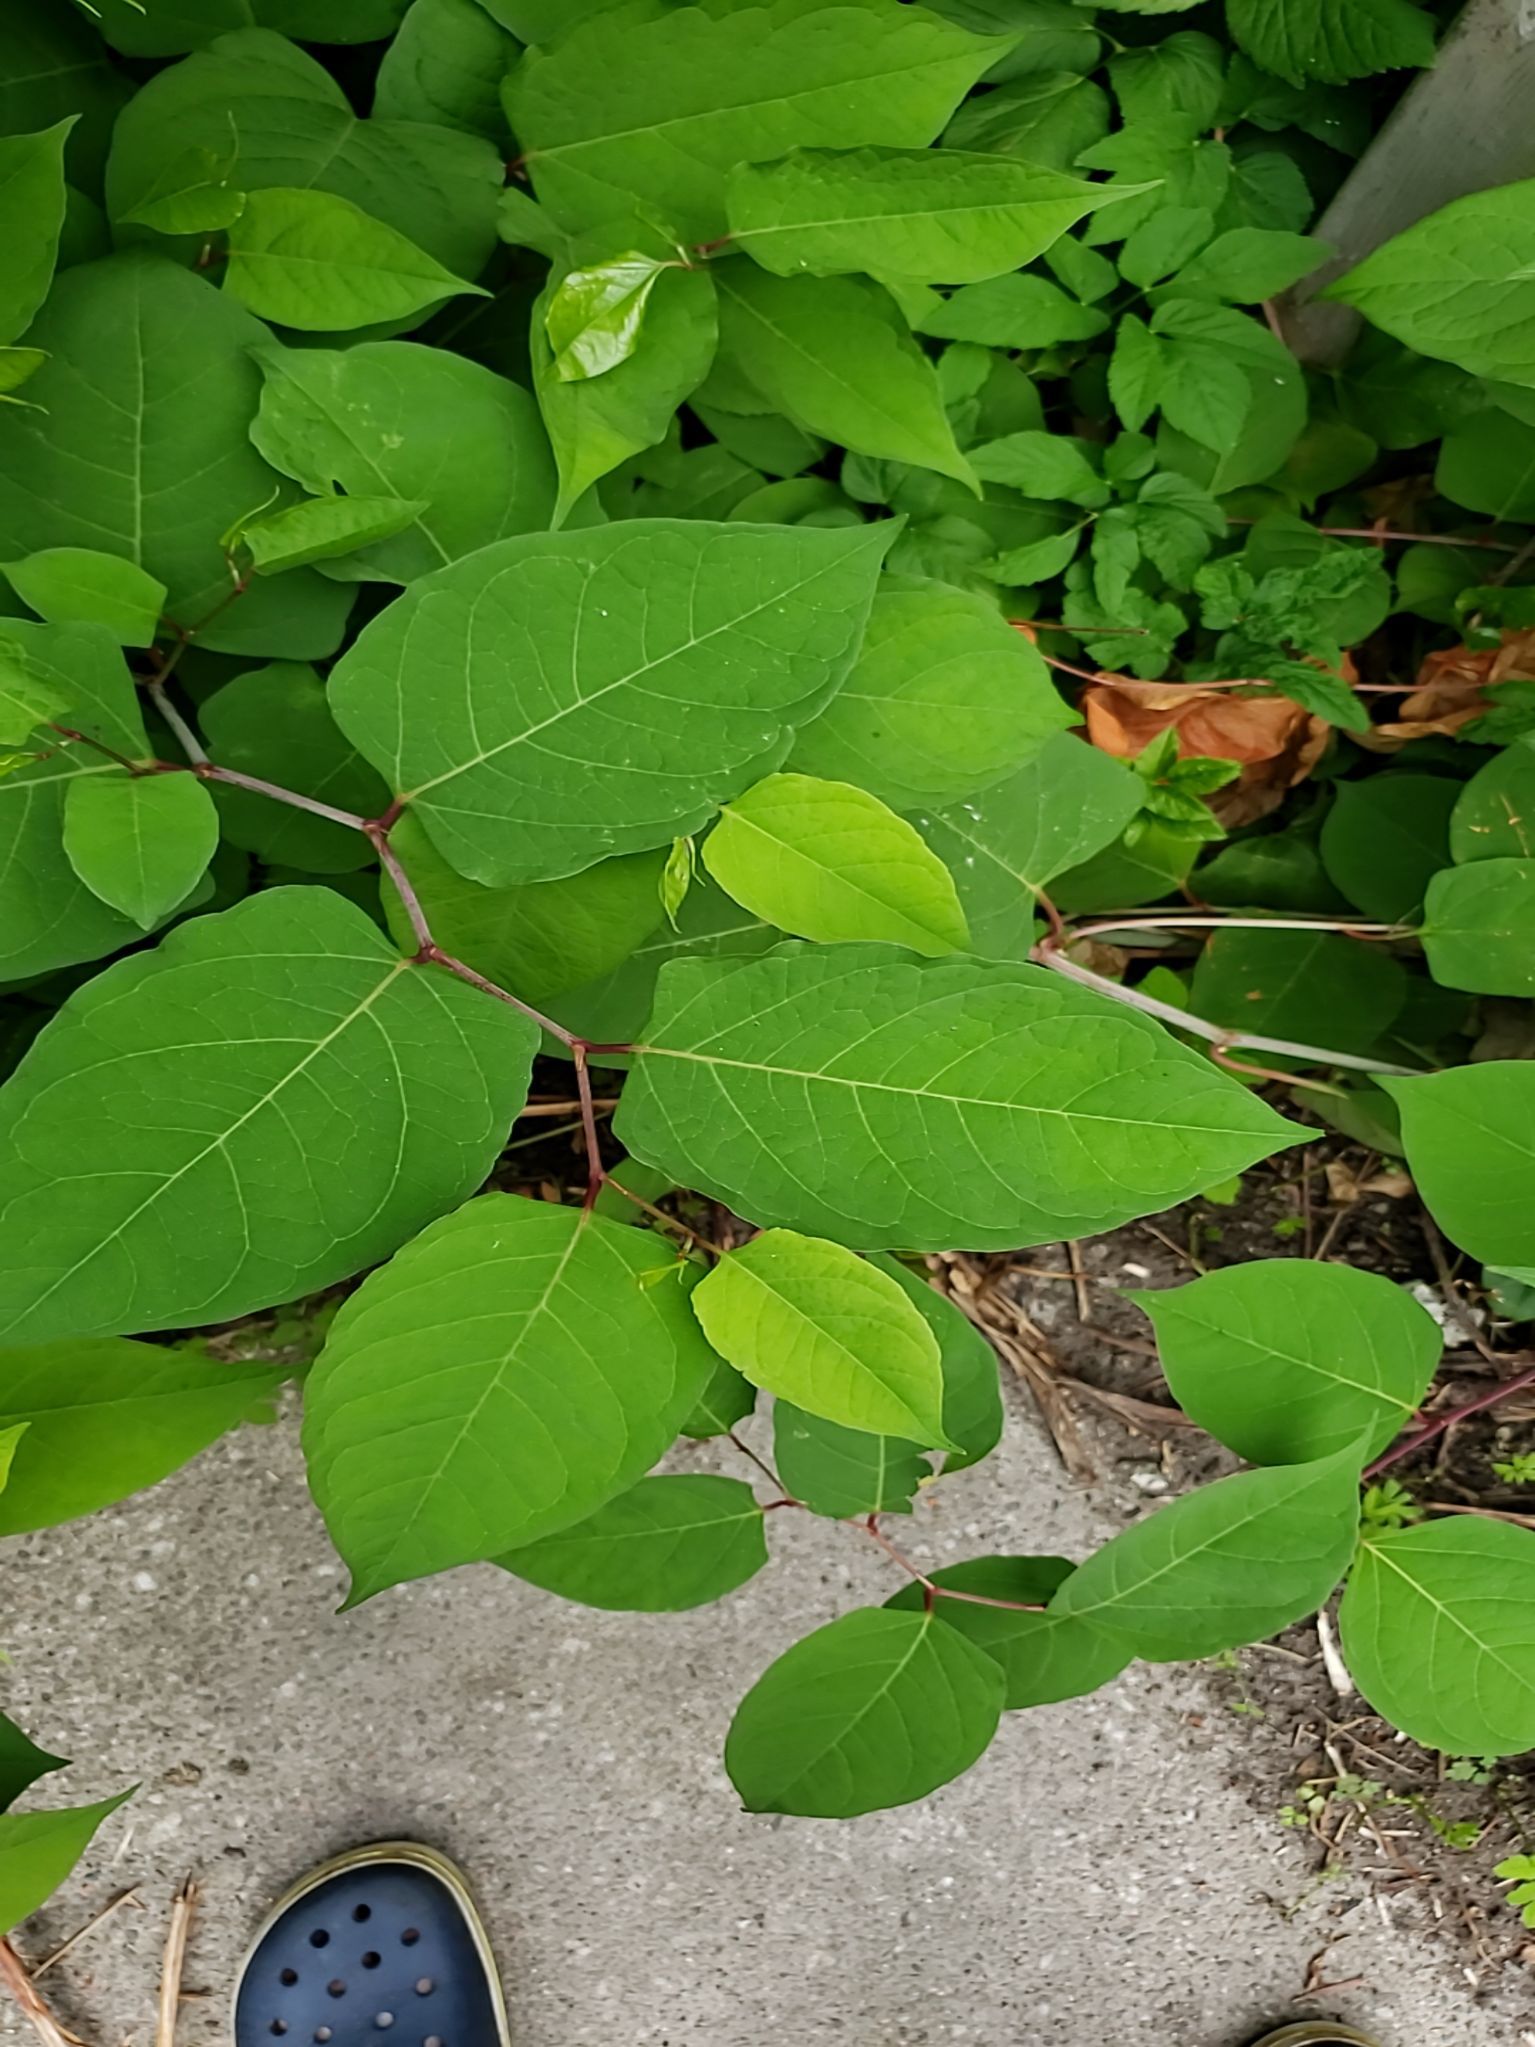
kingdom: Plantae
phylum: Tracheophyta
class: Magnoliopsida
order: Caryophyllales
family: Polygonaceae
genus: Reynoutria
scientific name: Reynoutria japonica
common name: Japanese knotweed
